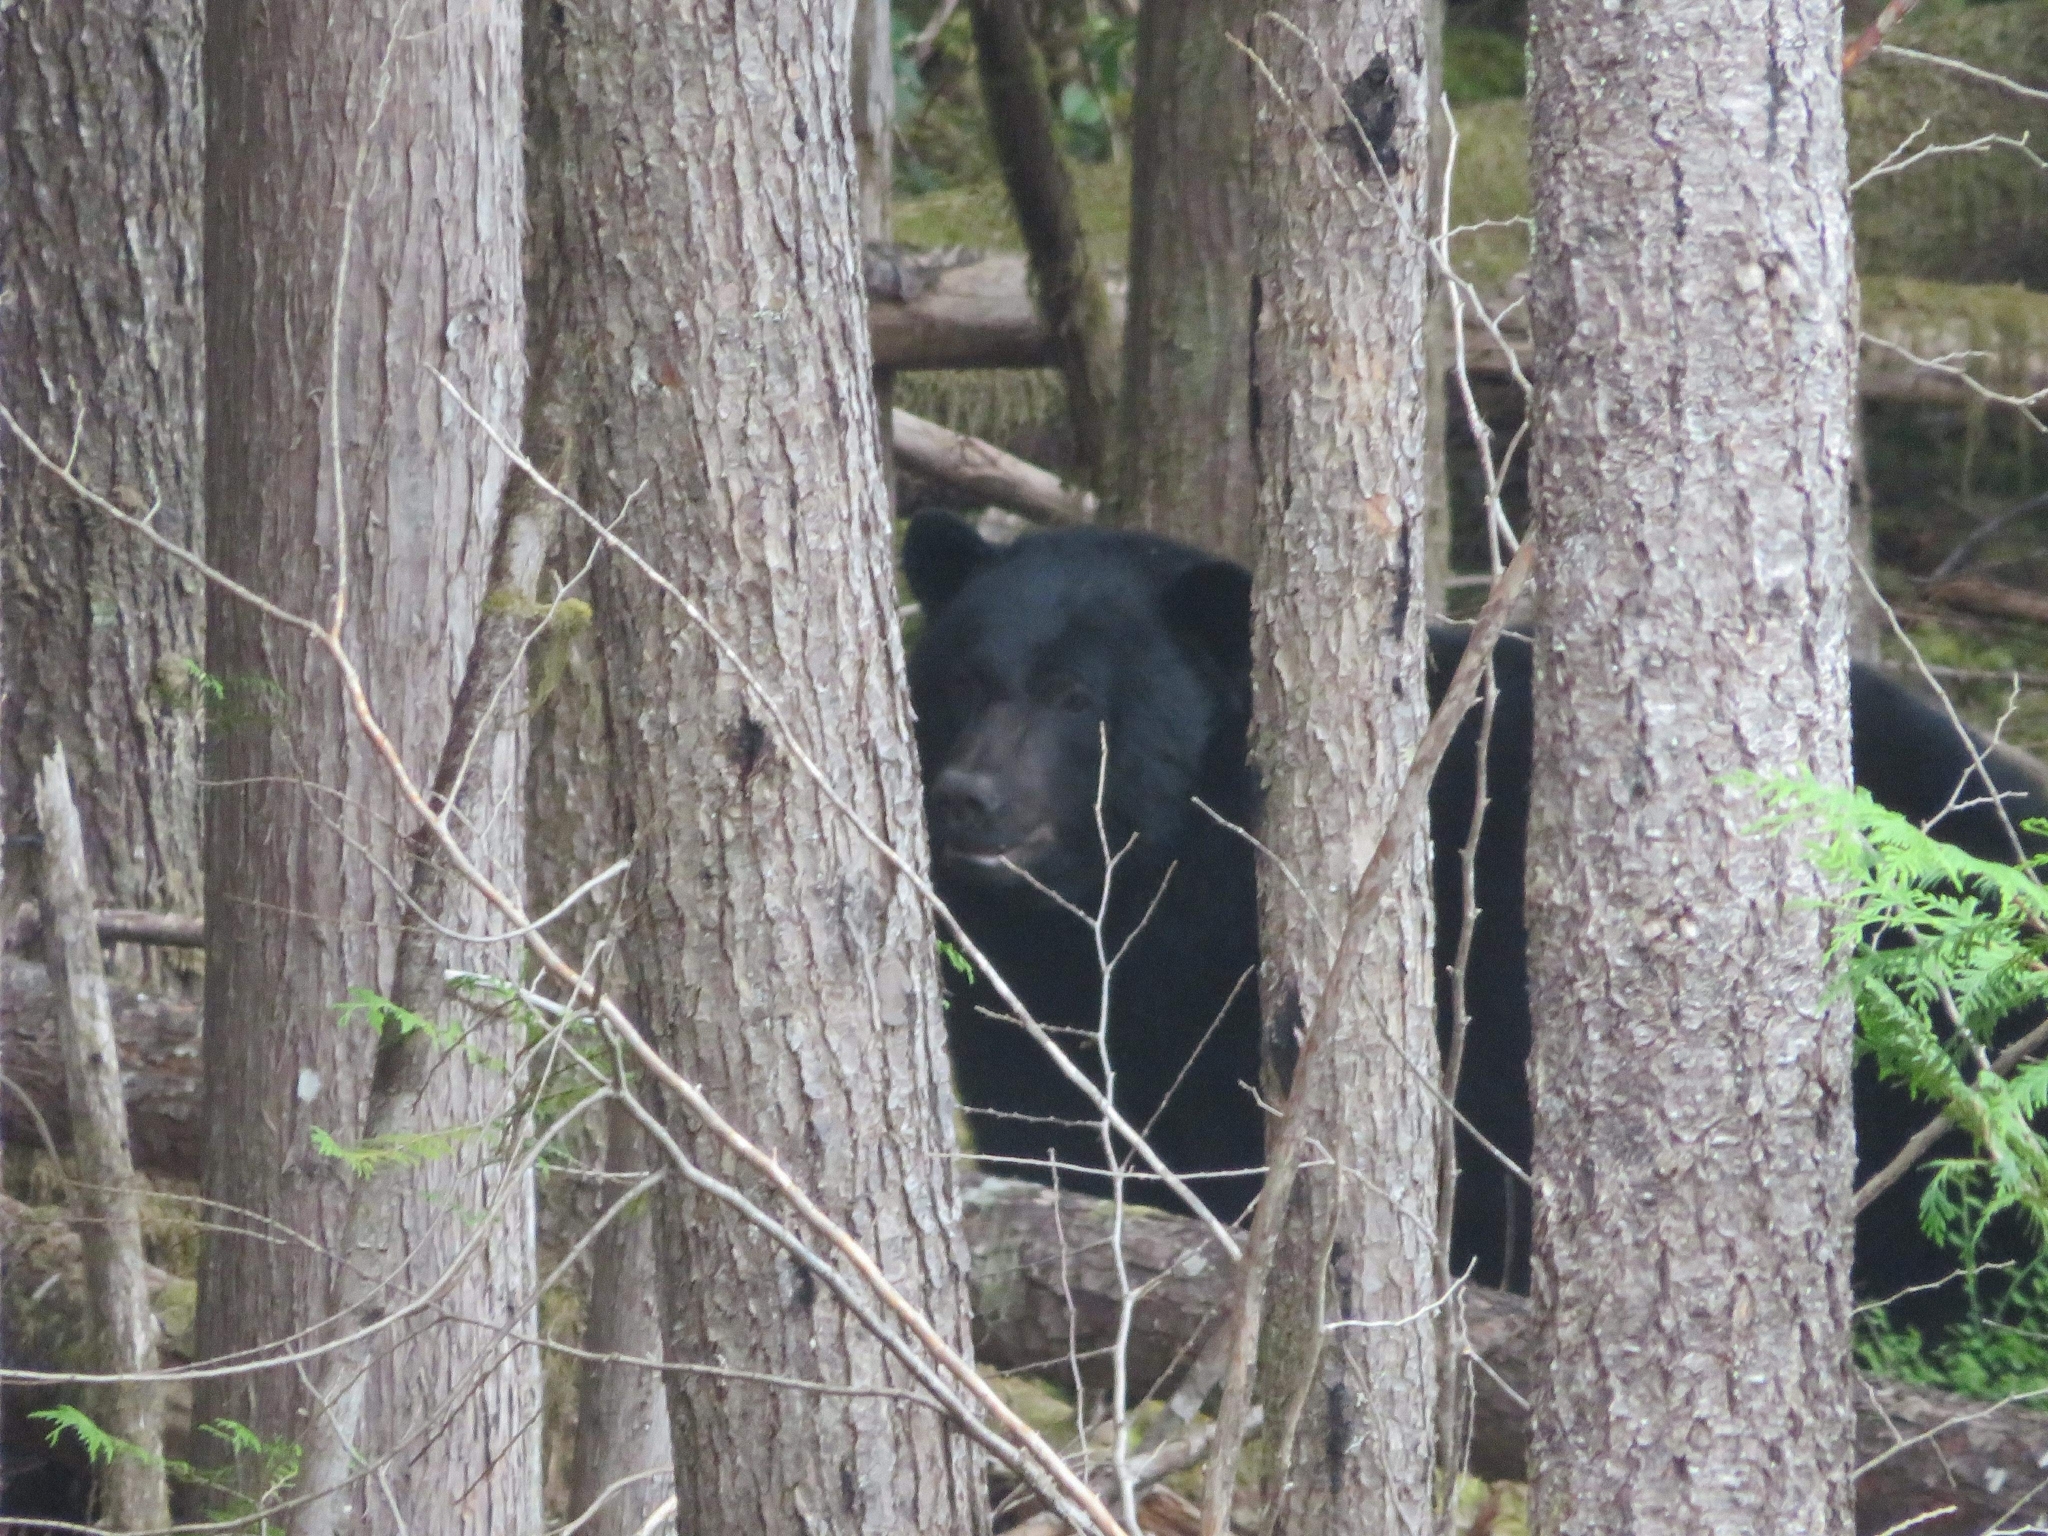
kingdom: Animalia
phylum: Chordata
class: Mammalia
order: Carnivora
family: Ursidae
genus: Ursus
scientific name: Ursus americanus
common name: American black bear
